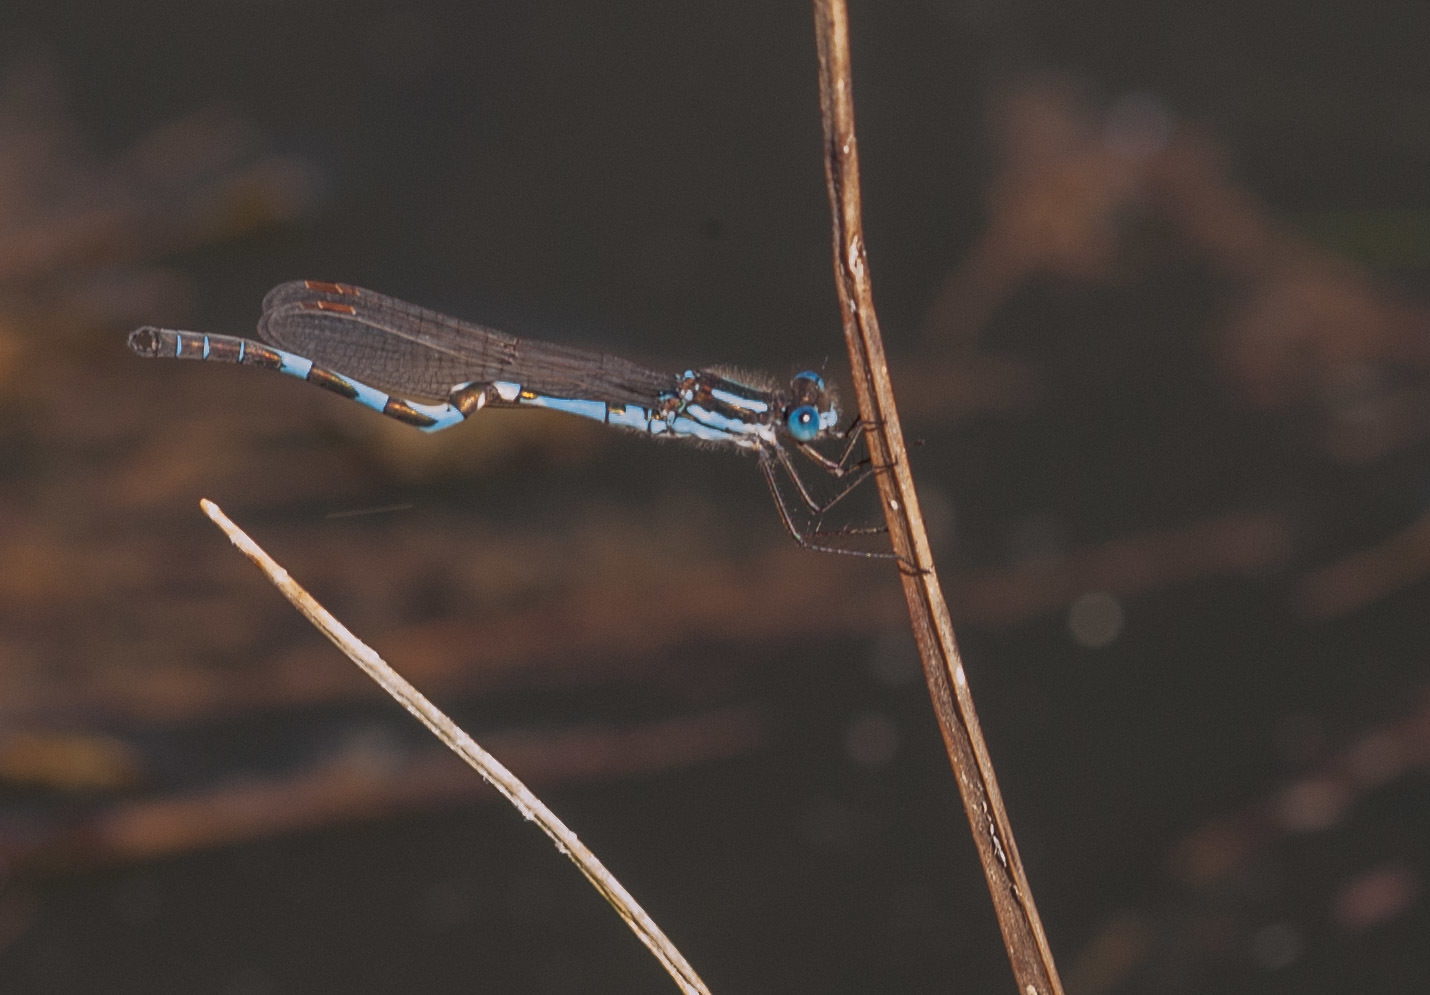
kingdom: Animalia
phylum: Arthropoda
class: Insecta
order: Odonata
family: Lestidae
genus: Austrolestes
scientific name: Austrolestes annulosus
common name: Blue ringtail
